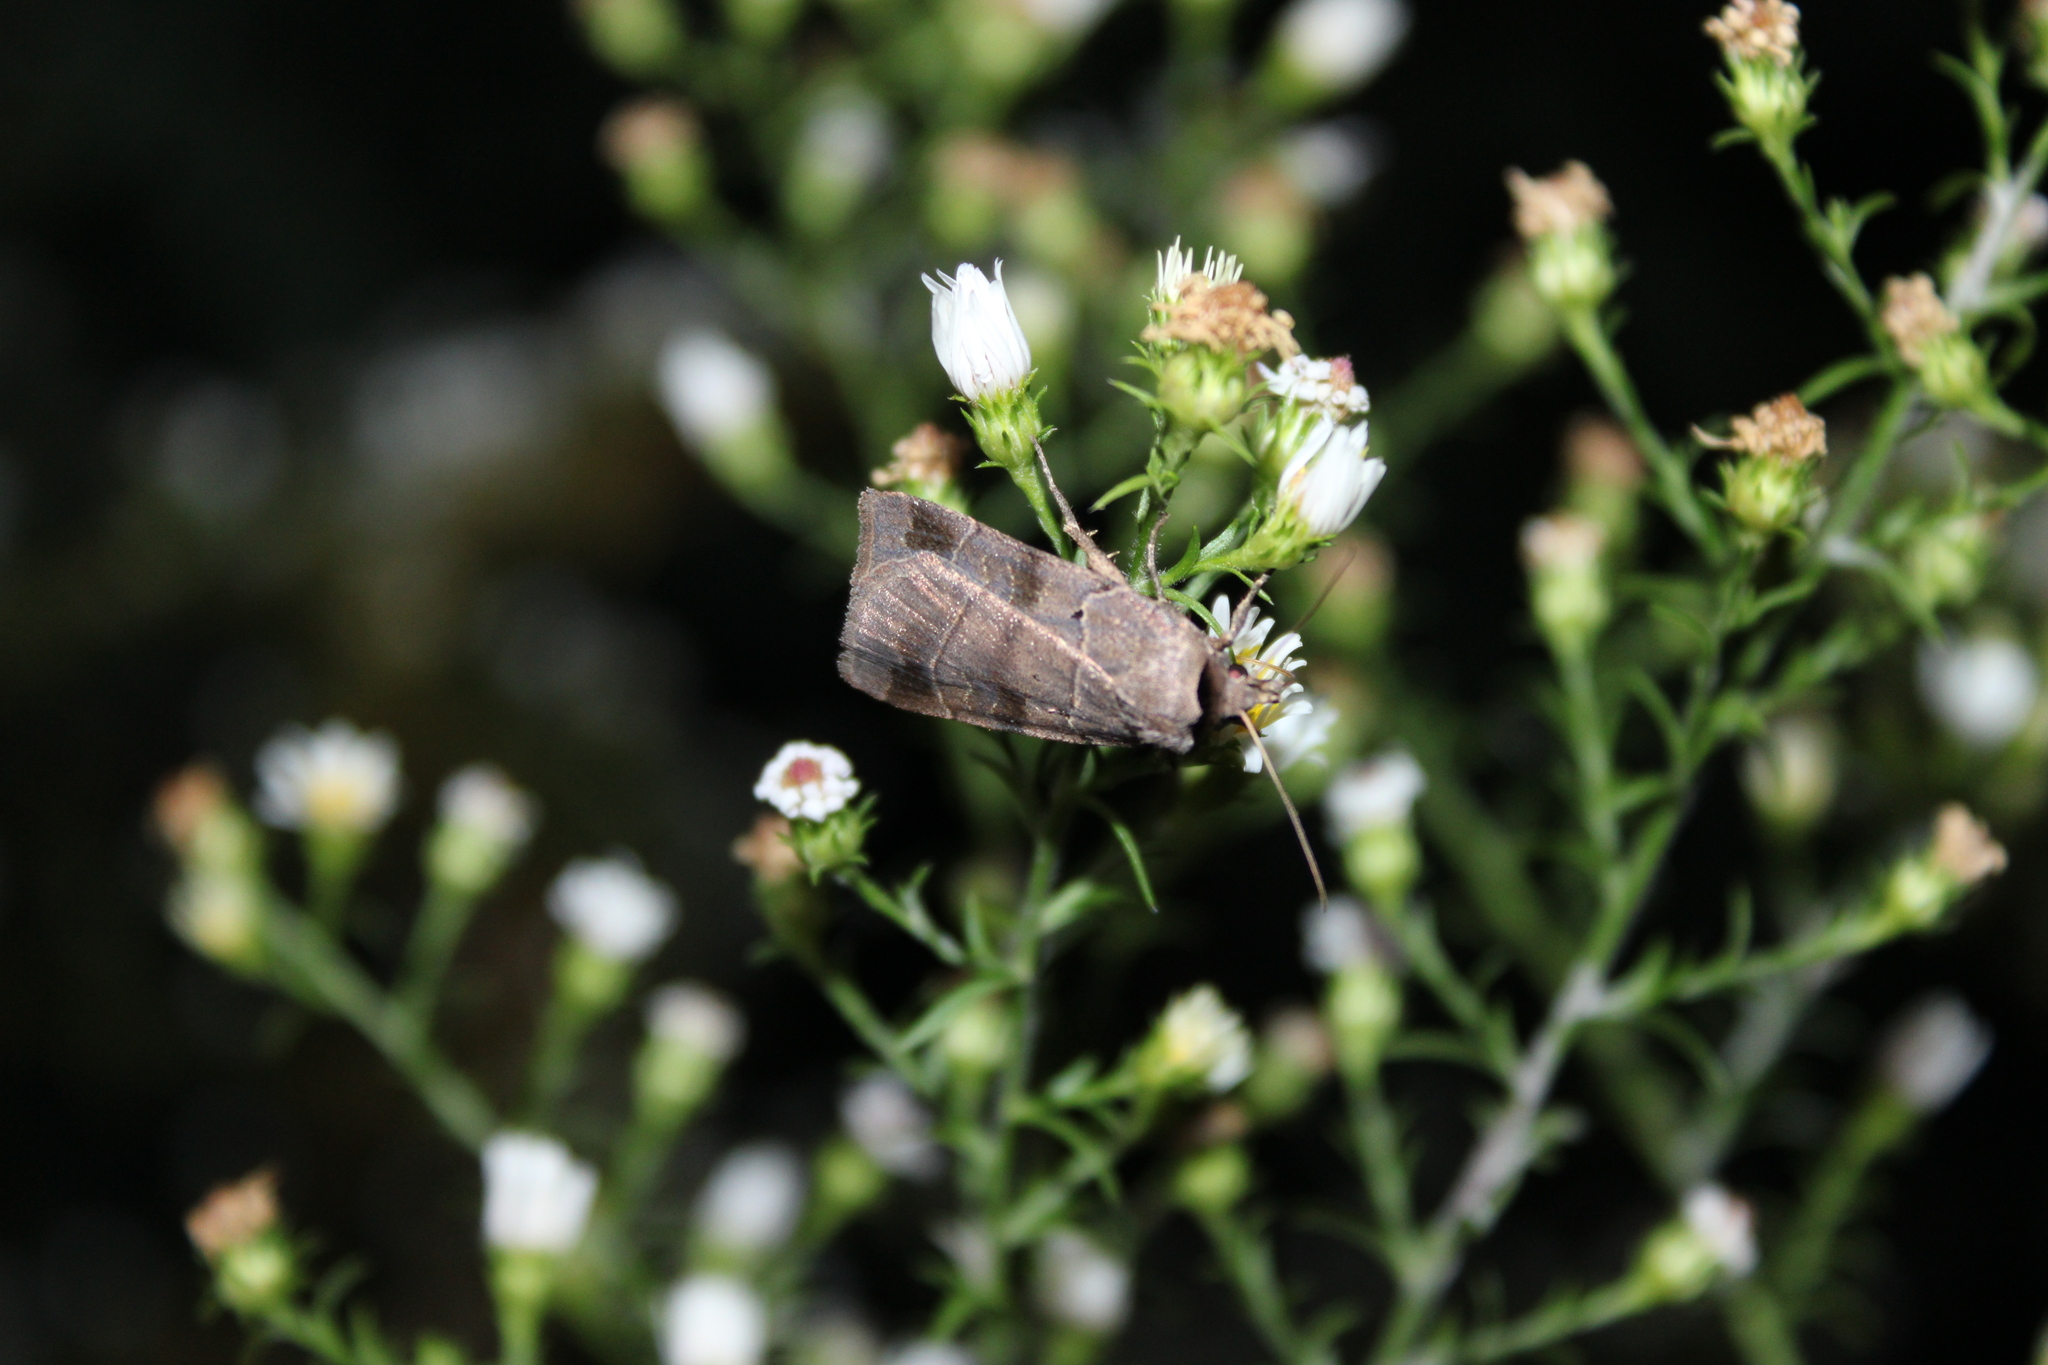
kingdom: Animalia
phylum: Arthropoda
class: Insecta
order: Lepidoptera
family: Noctuidae
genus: Agnorisma
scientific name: Agnorisma badinodis
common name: Pale-banded dart
